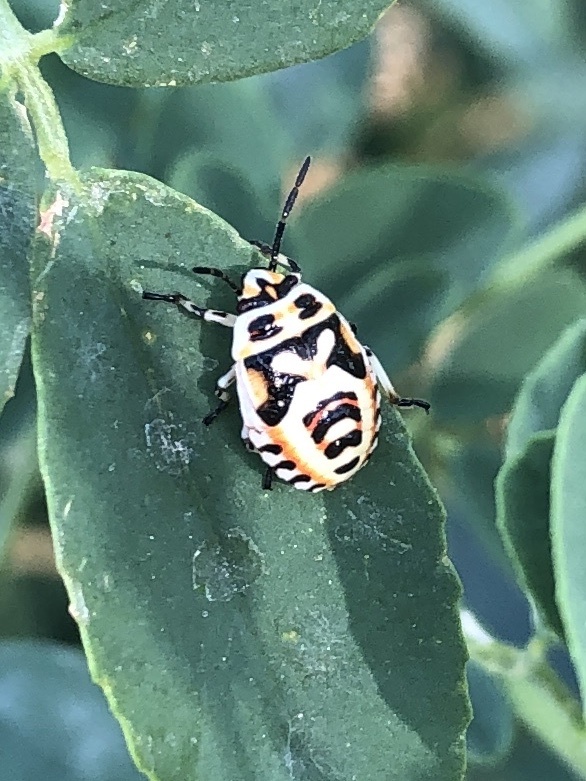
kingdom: Animalia
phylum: Arthropoda
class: Insecta
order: Hemiptera
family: Pentatomidae
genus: Eurydema
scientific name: Eurydema ornata
